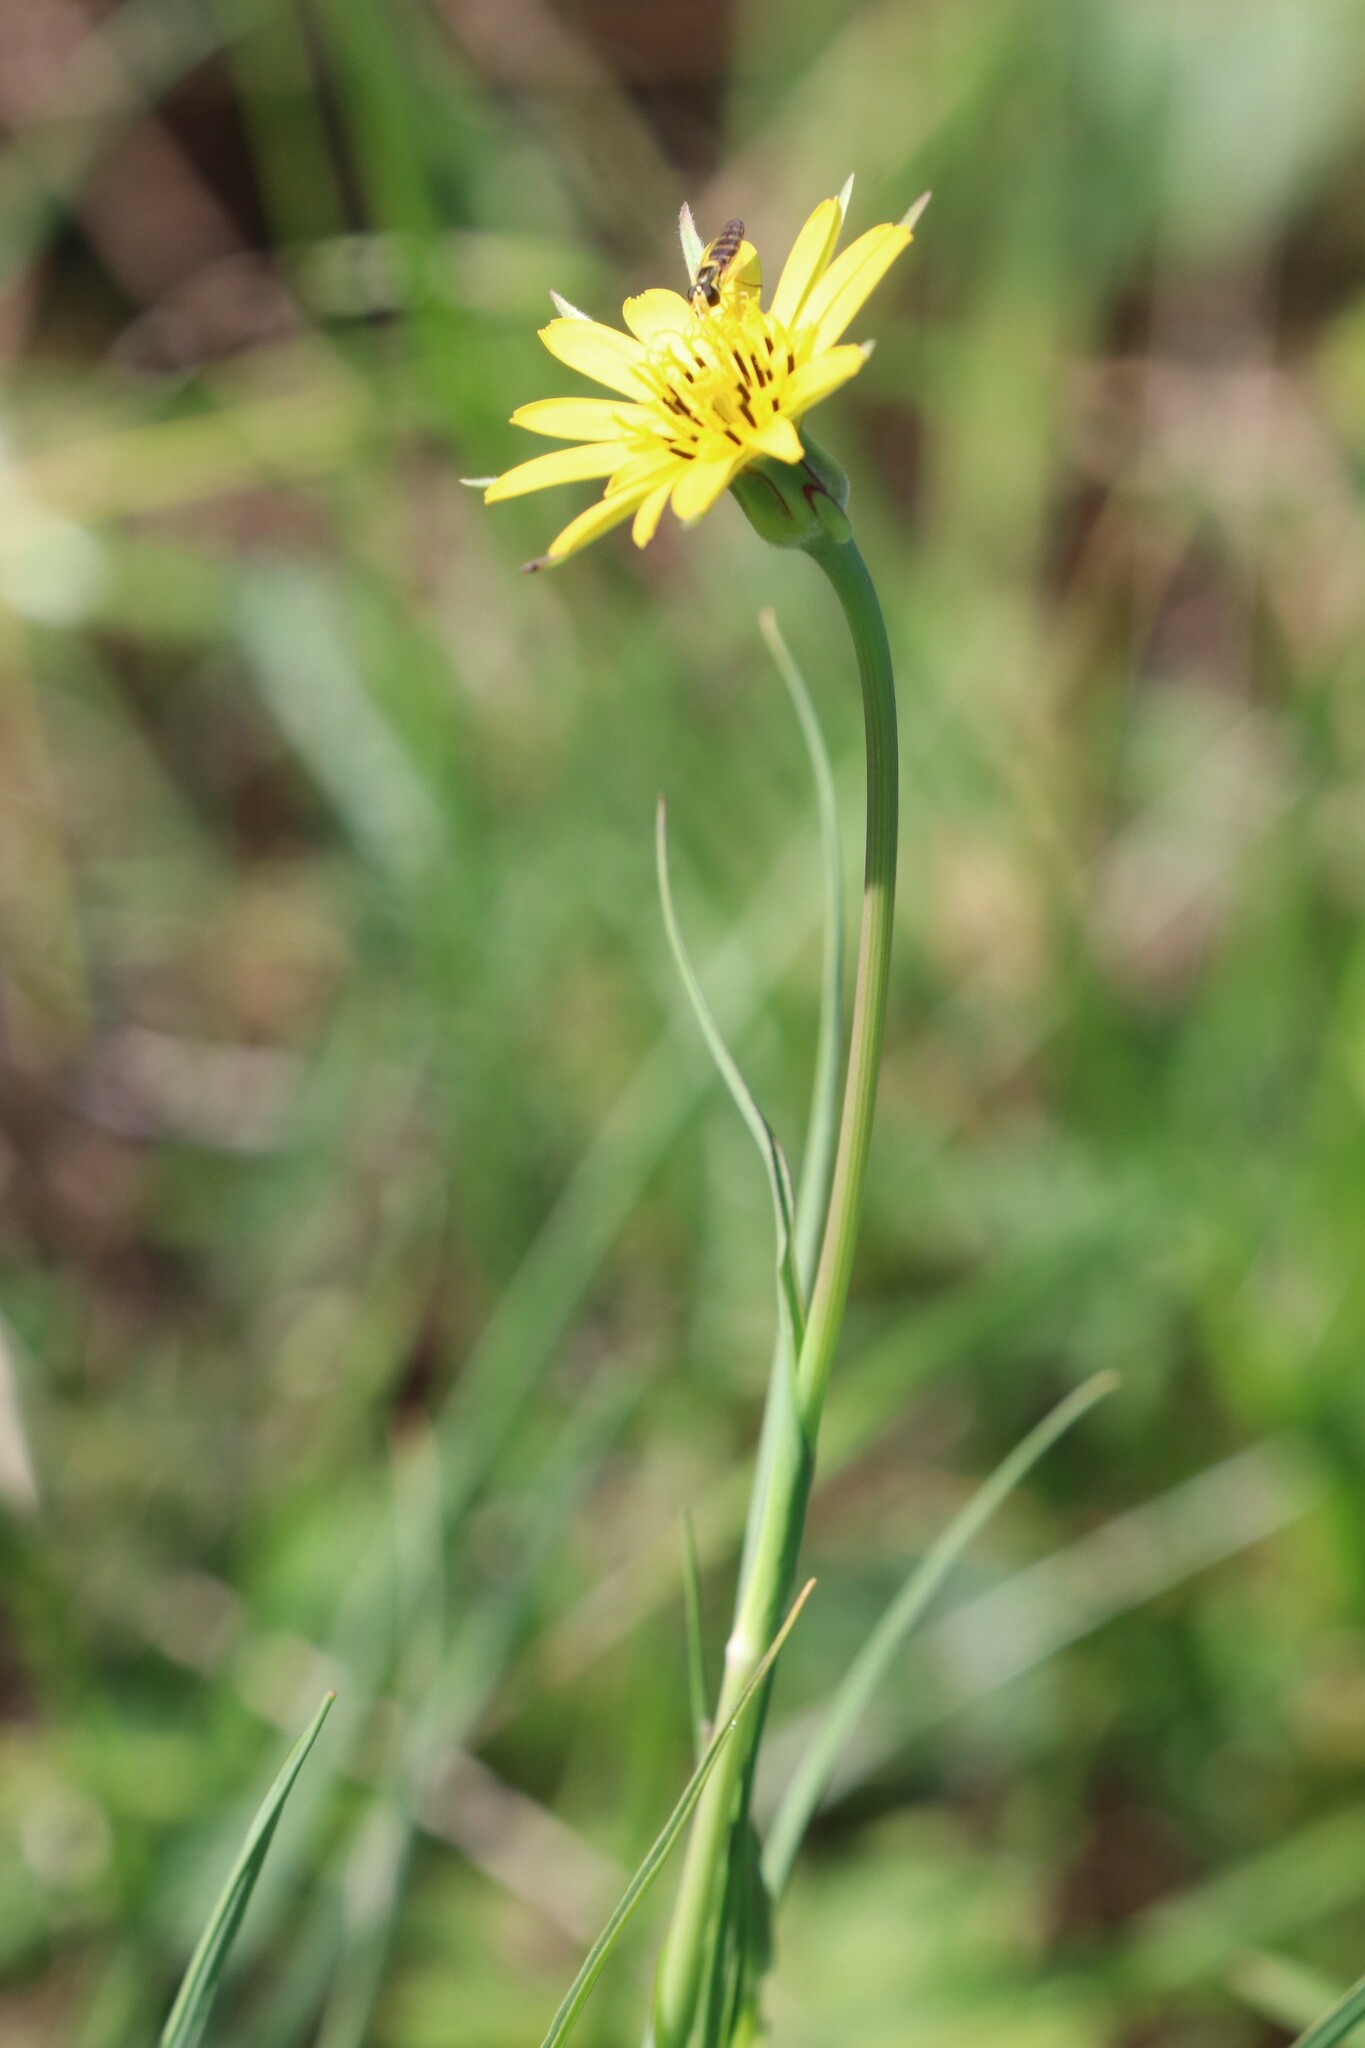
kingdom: Plantae
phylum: Tracheophyta
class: Magnoliopsida
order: Asterales
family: Asteraceae
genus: Tragopogon
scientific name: Tragopogon pratensis
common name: Goat's-beard
